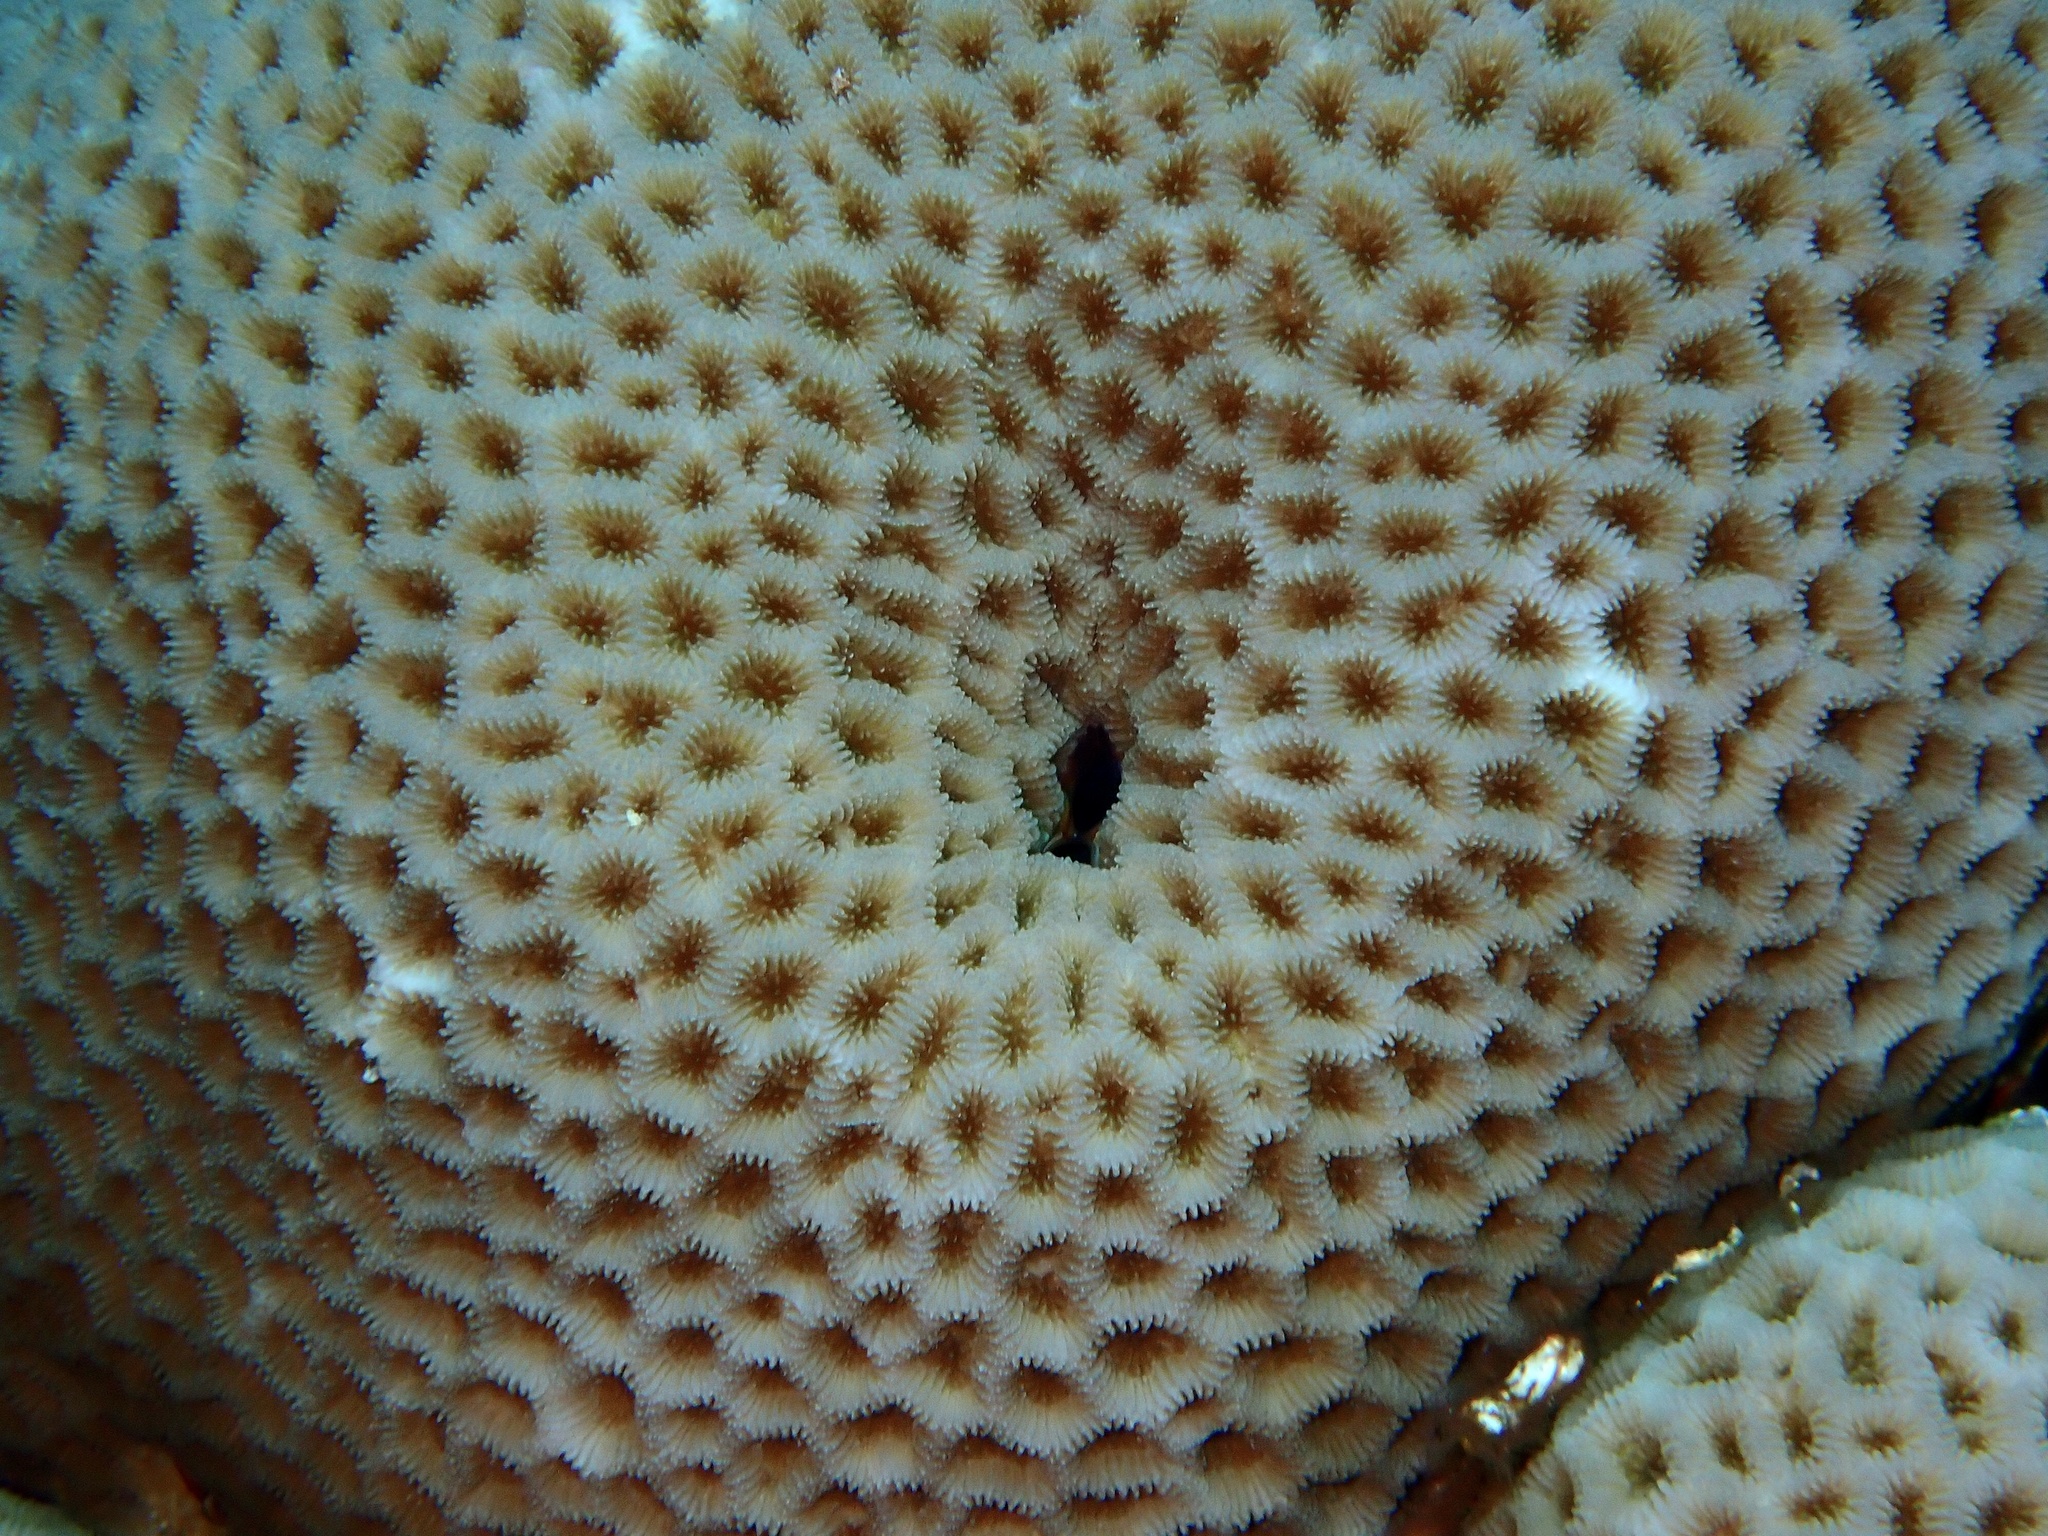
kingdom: Animalia
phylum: Cnidaria
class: Anthozoa
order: Scleractinia
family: Merulinidae
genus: Goniastrea
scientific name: Goniastrea pectinata
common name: Lesser star coral
